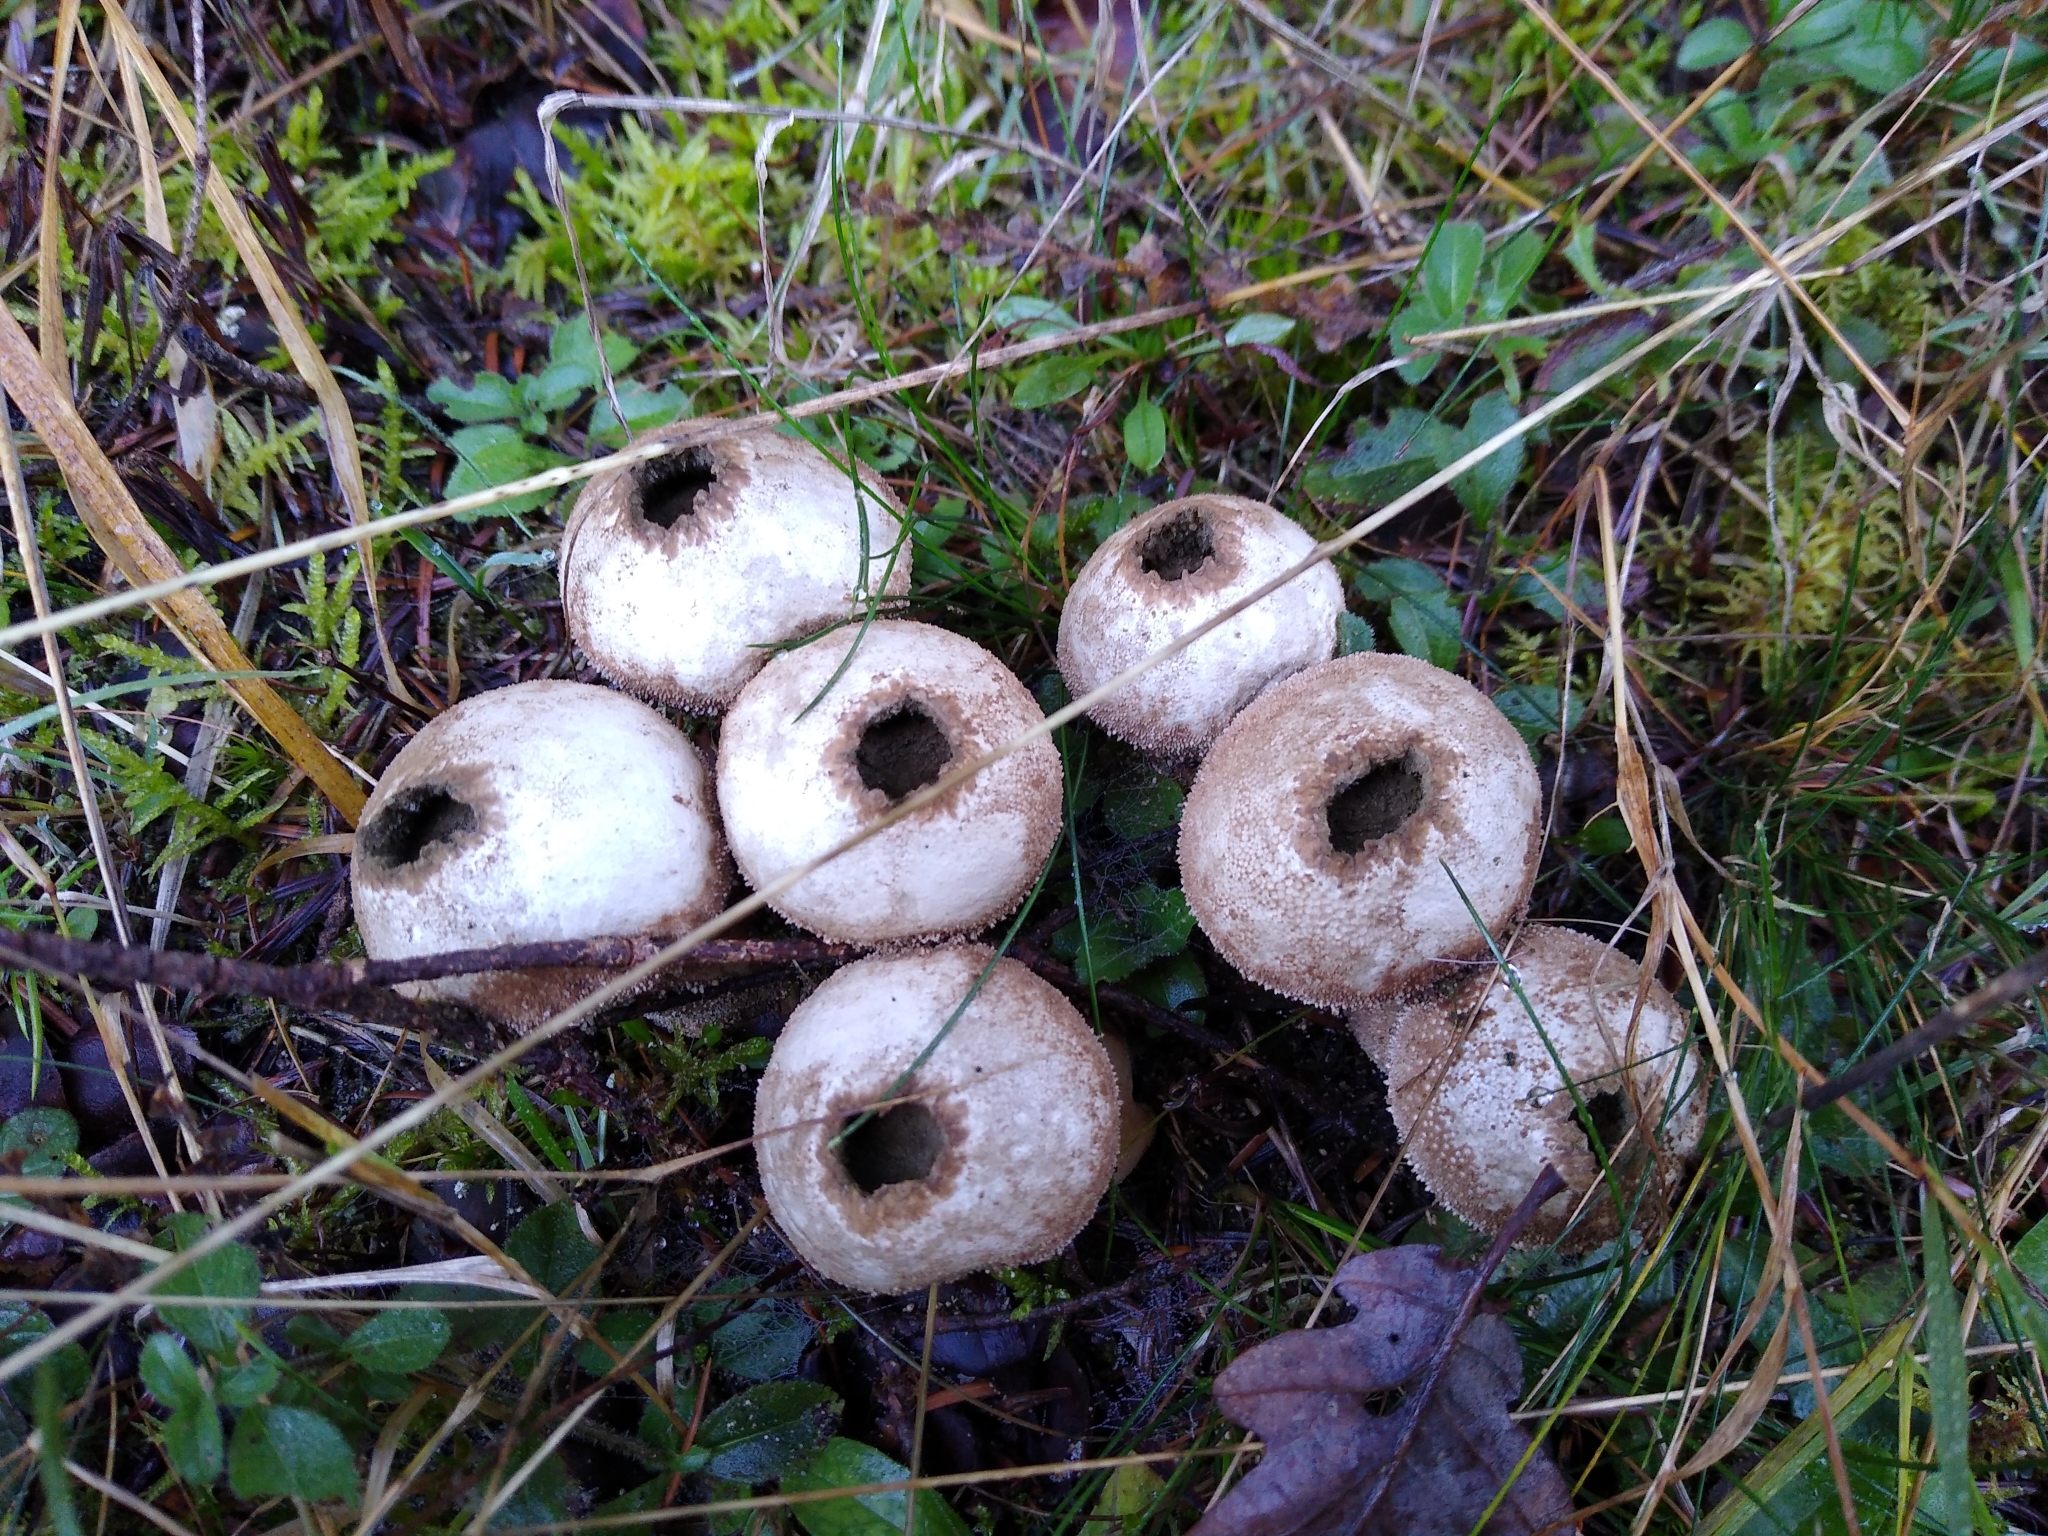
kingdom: Fungi
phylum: Basidiomycota
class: Agaricomycetes
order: Agaricales
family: Lycoperdaceae
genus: Lycoperdon
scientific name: Lycoperdon perlatum
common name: Common puffball
